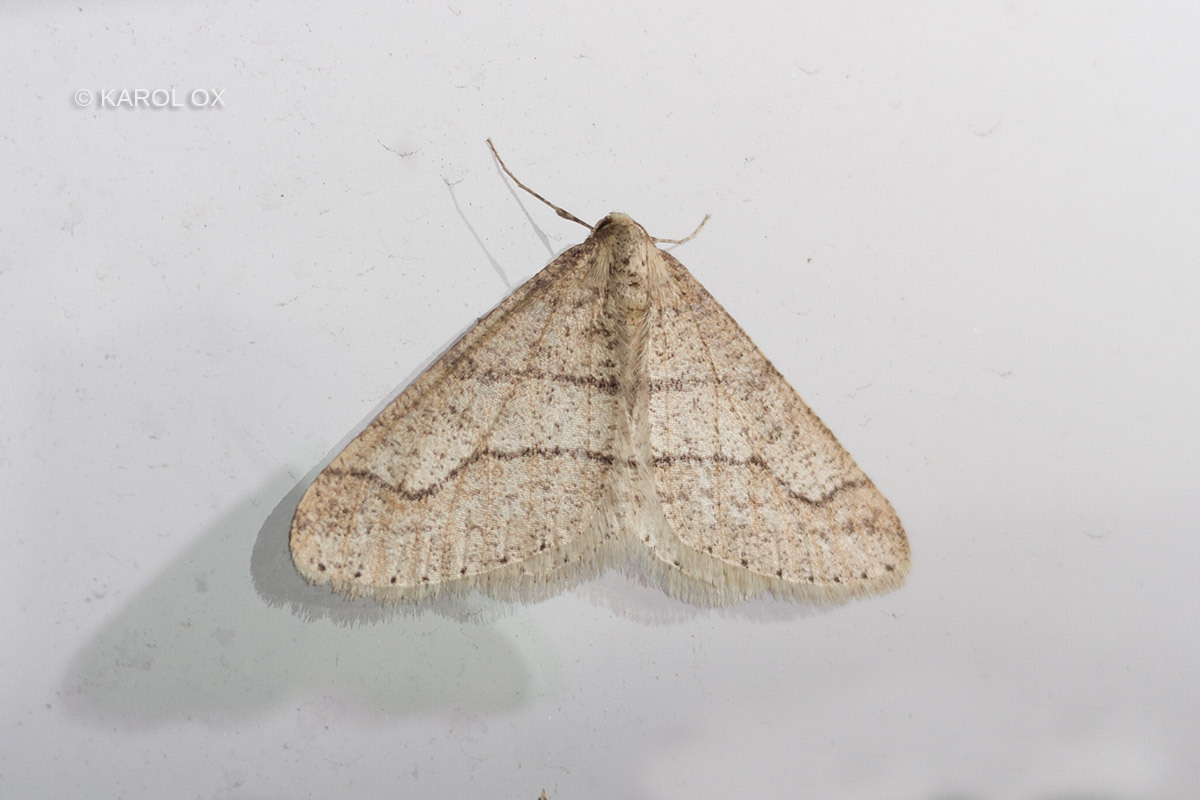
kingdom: Animalia
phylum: Arthropoda
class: Insecta
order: Lepidoptera
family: Geometridae
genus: Agriopis
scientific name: Agriopis marginaria
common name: Dotted border
